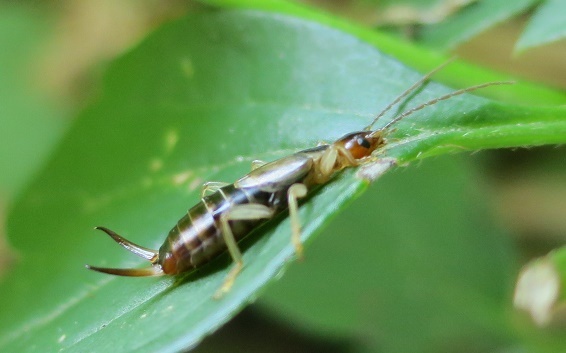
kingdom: Animalia
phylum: Arthropoda
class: Insecta
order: Dermaptera
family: Forficulidae
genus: Forficula
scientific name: Forficula
